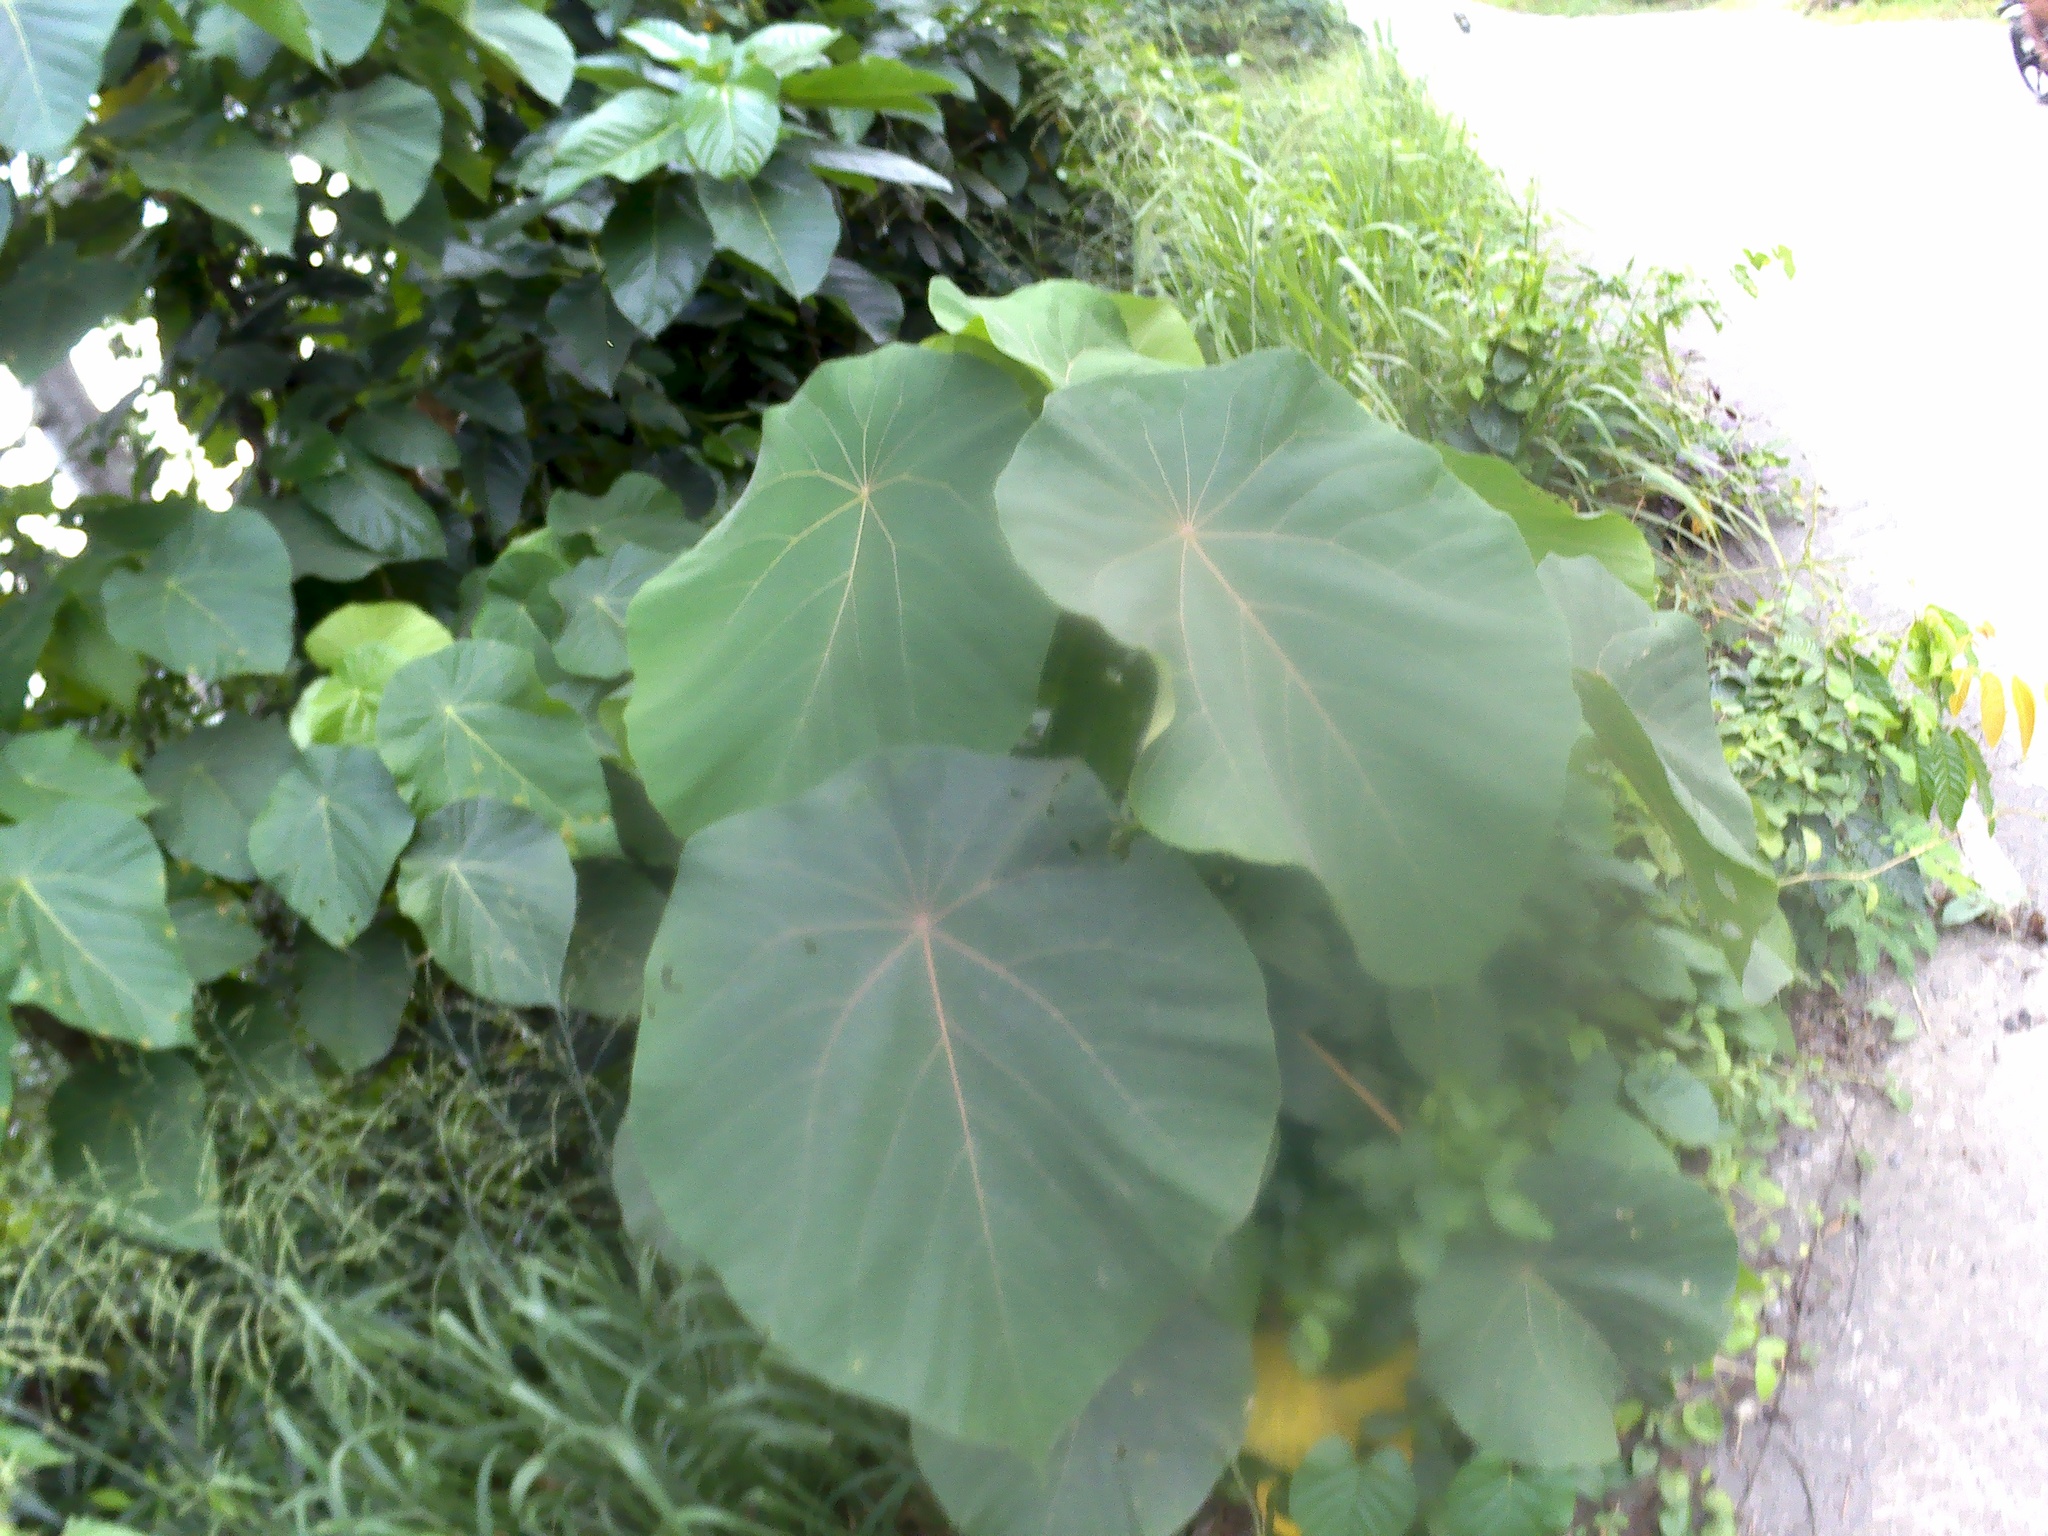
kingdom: Plantae
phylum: Tracheophyta
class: Magnoliopsida
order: Malpighiales
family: Euphorbiaceae
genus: Macaranga
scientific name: Macaranga tanarius
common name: Parasol leaf tree
